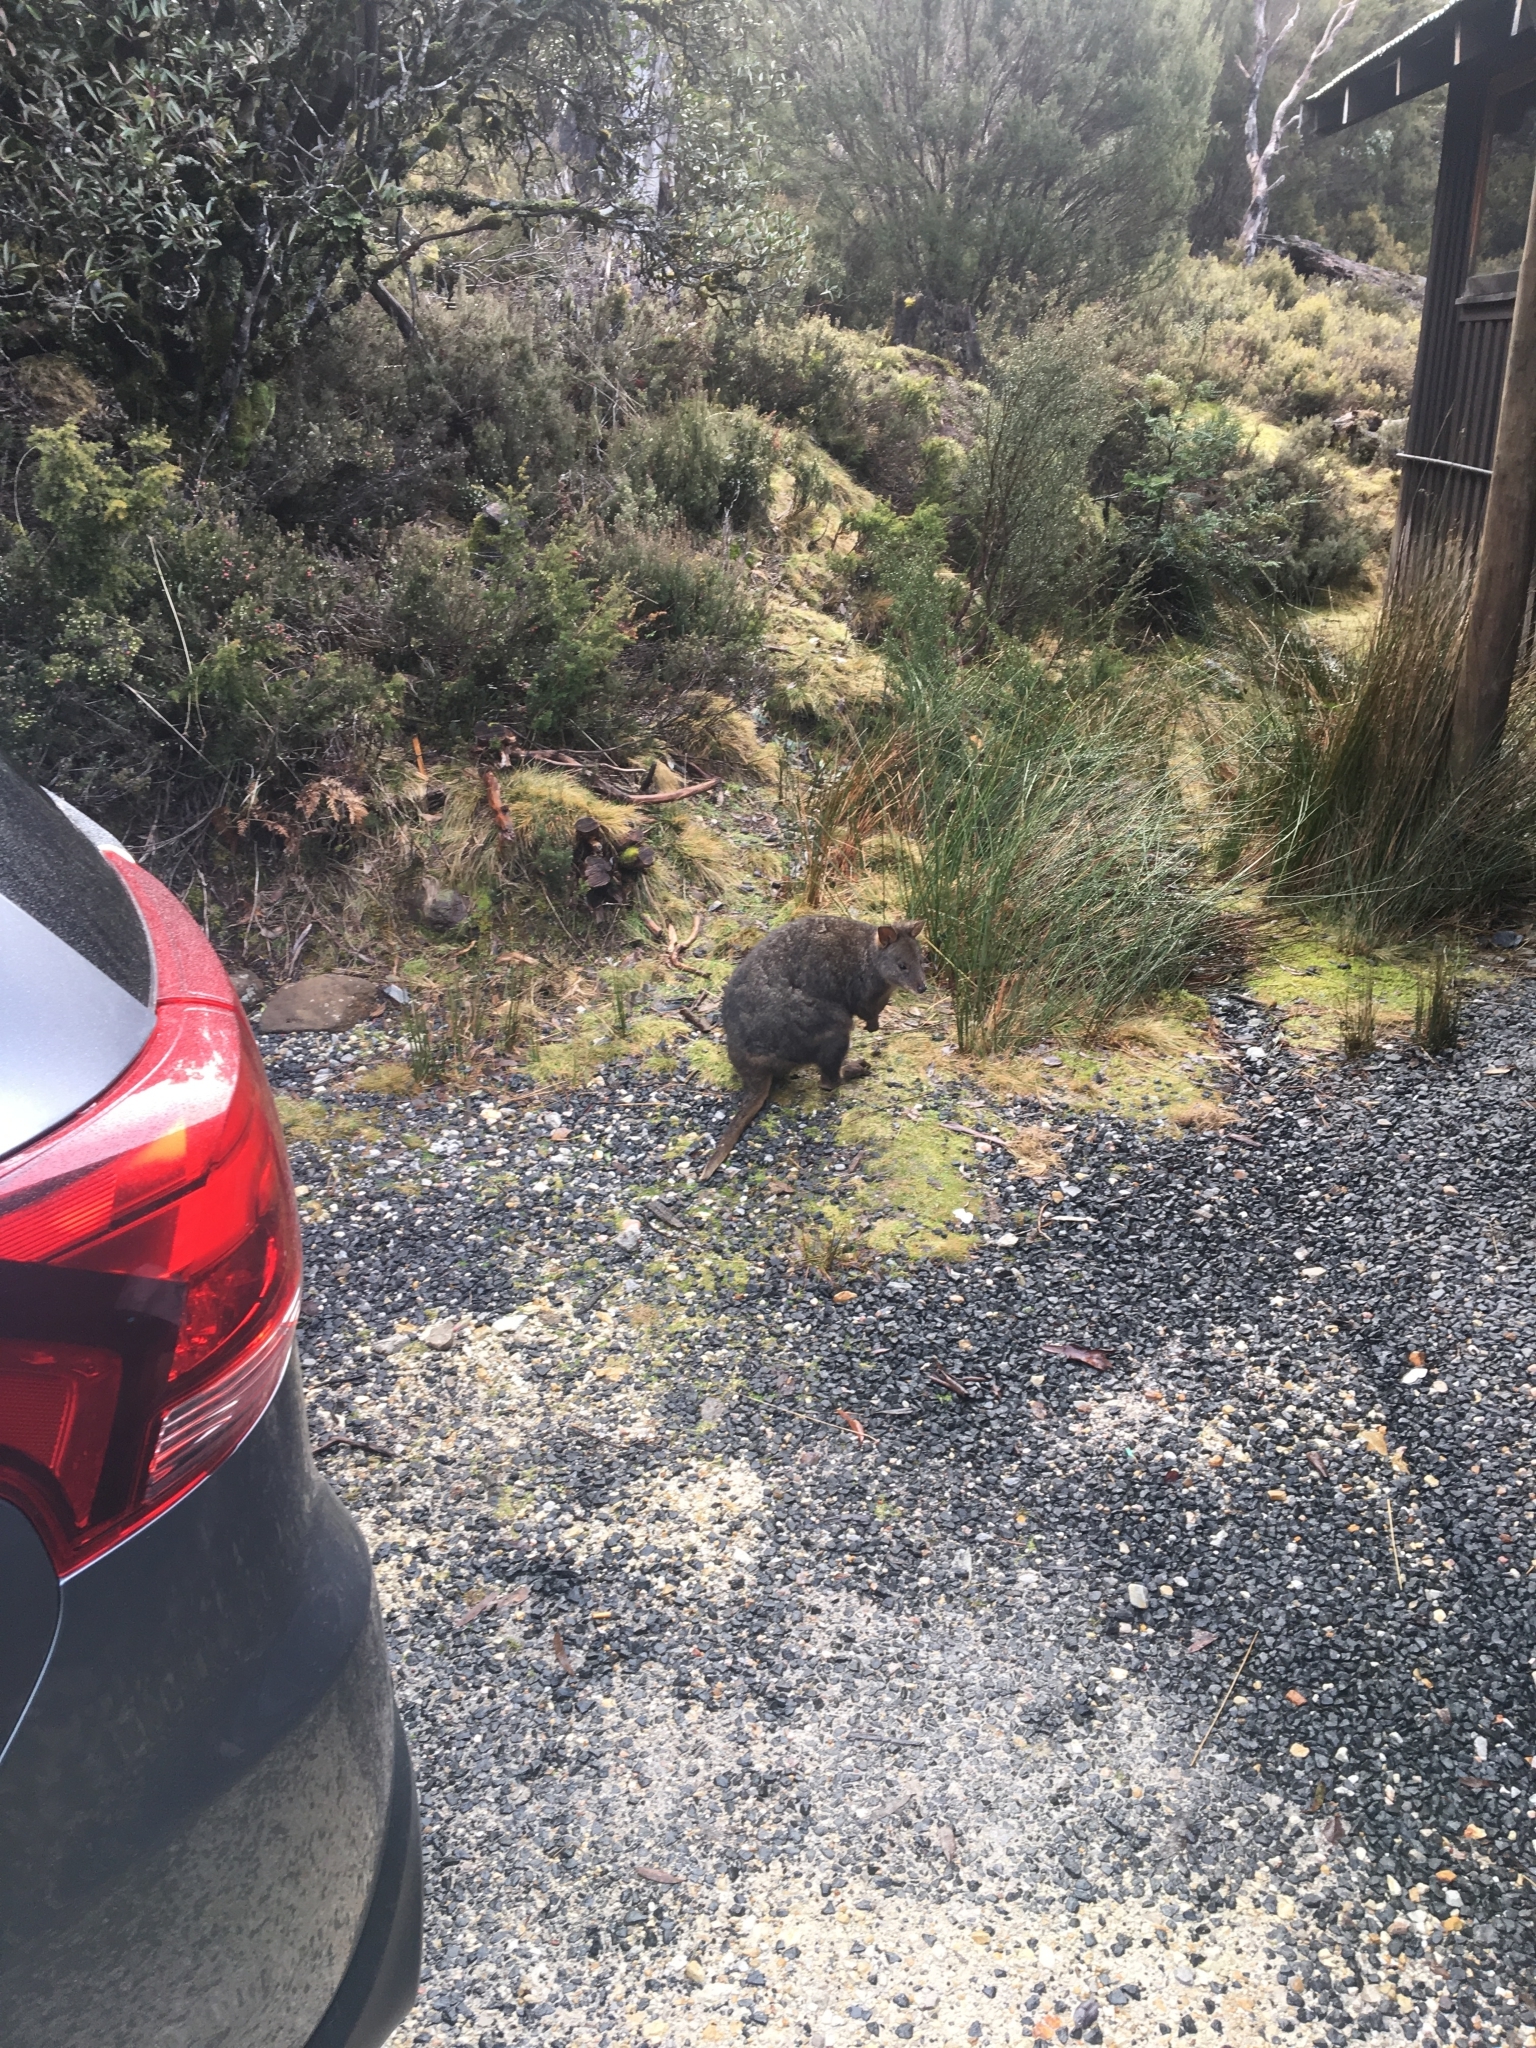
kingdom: Animalia
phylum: Chordata
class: Mammalia
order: Diprotodontia
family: Macropodidae
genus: Thylogale
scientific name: Thylogale billardierii
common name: Tasmanian pademelon
